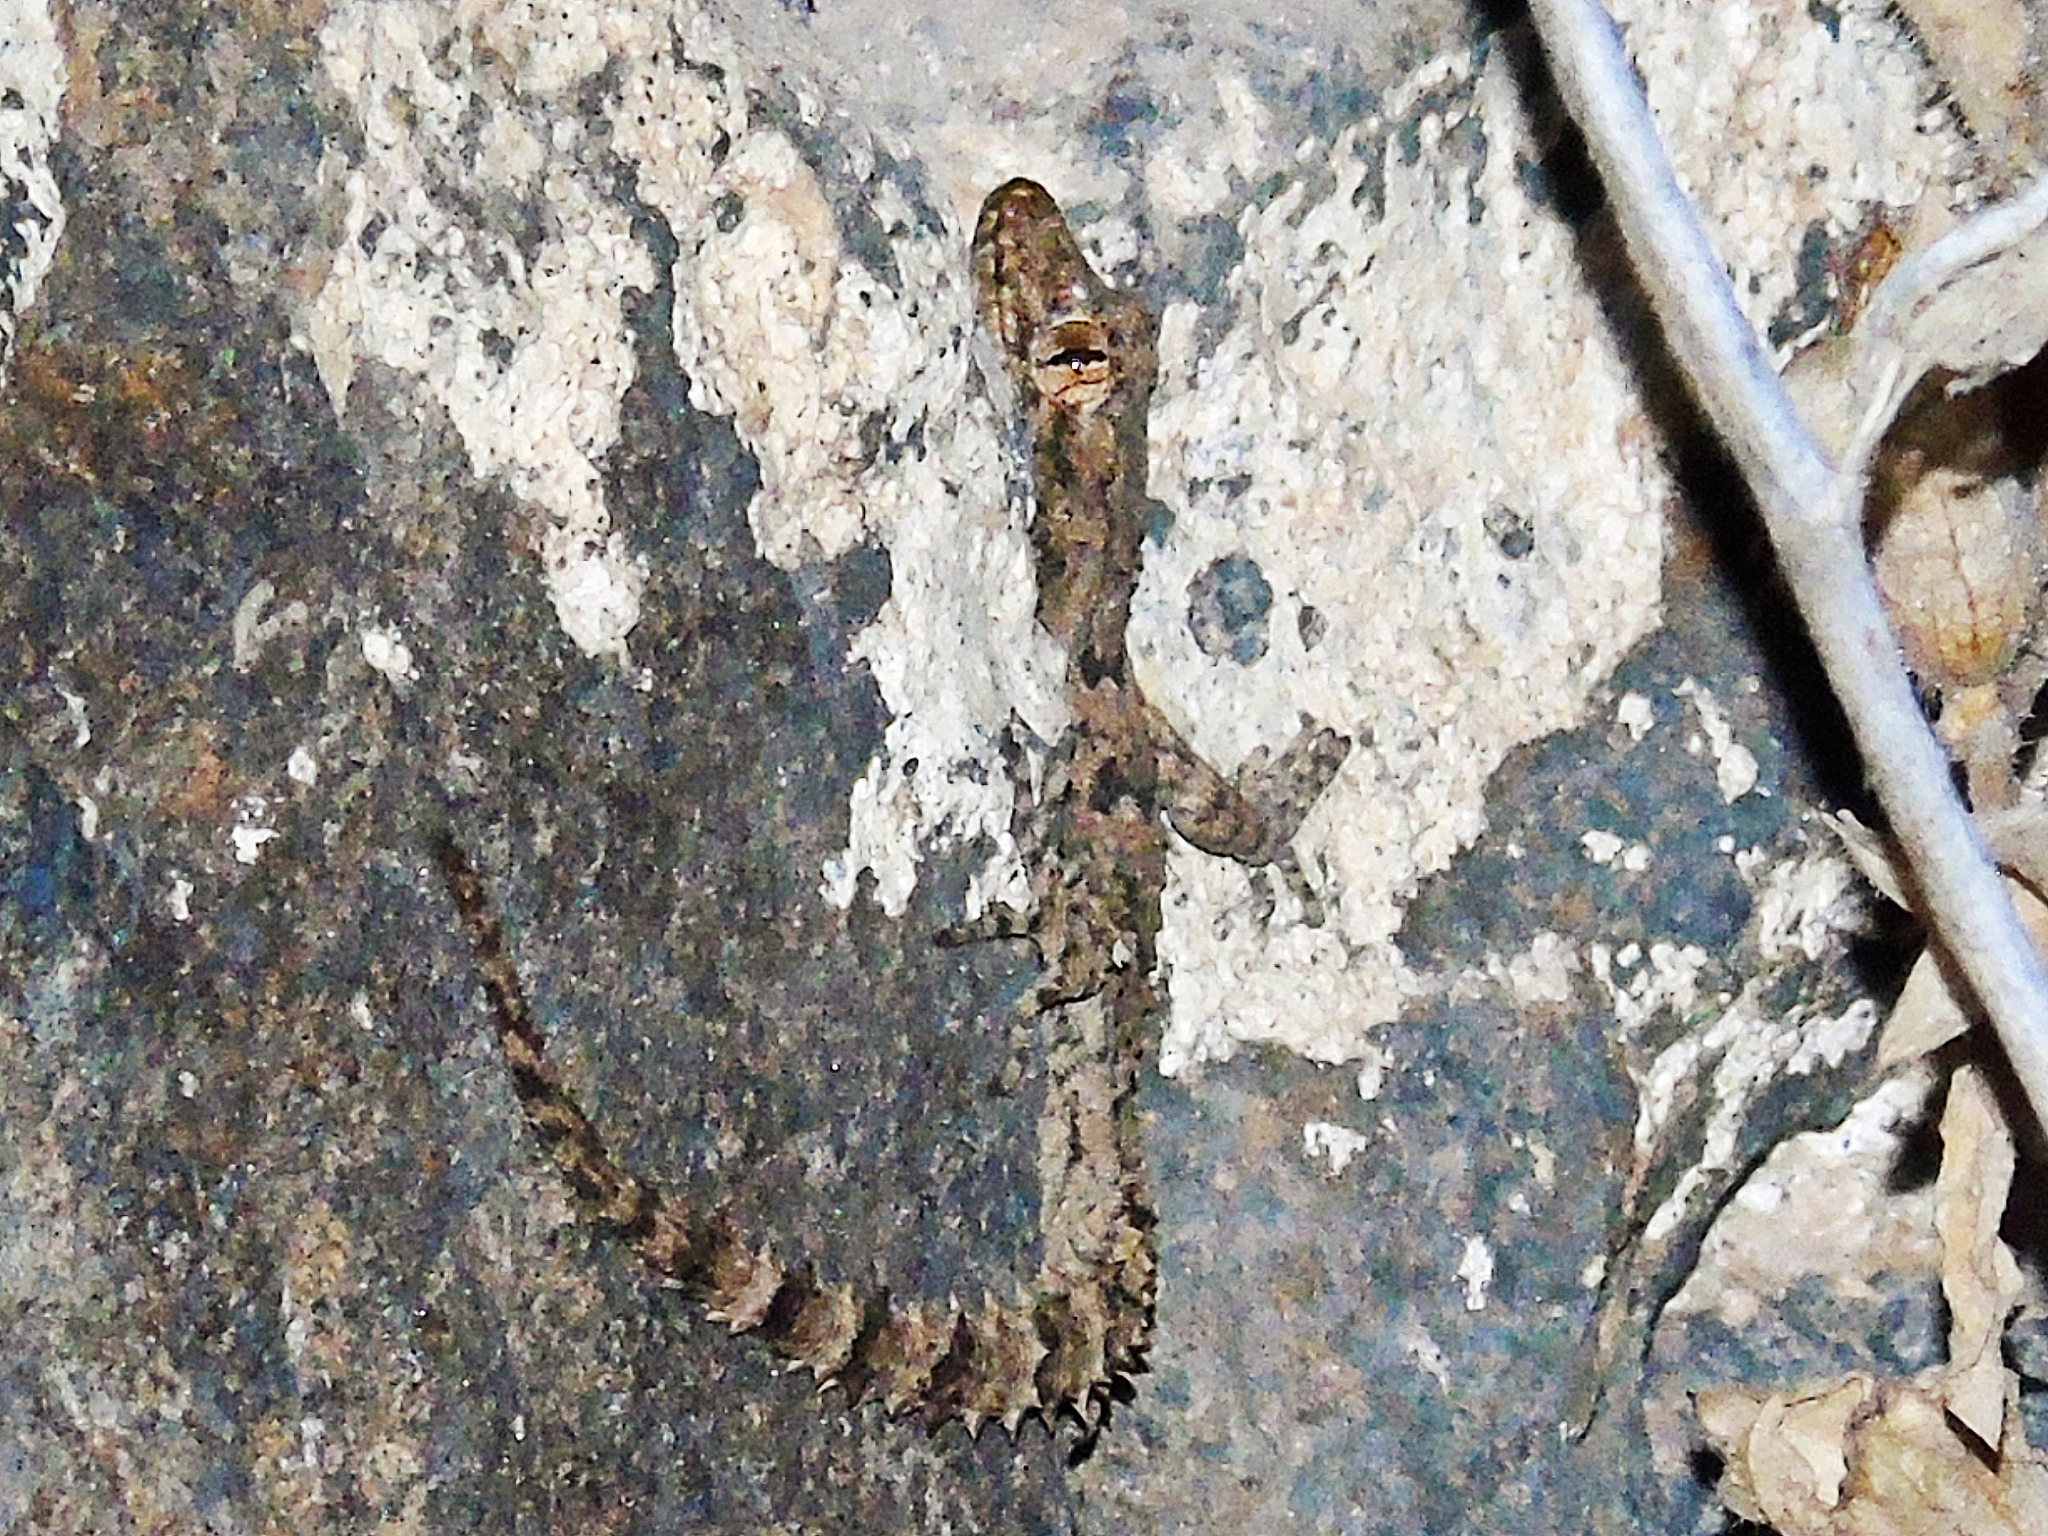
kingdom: Animalia
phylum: Chordata
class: Squamata
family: Gekkonidae
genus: Mediodactylus
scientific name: Mediodactylus heterocercus
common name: Asia minor thin-toed gecko
